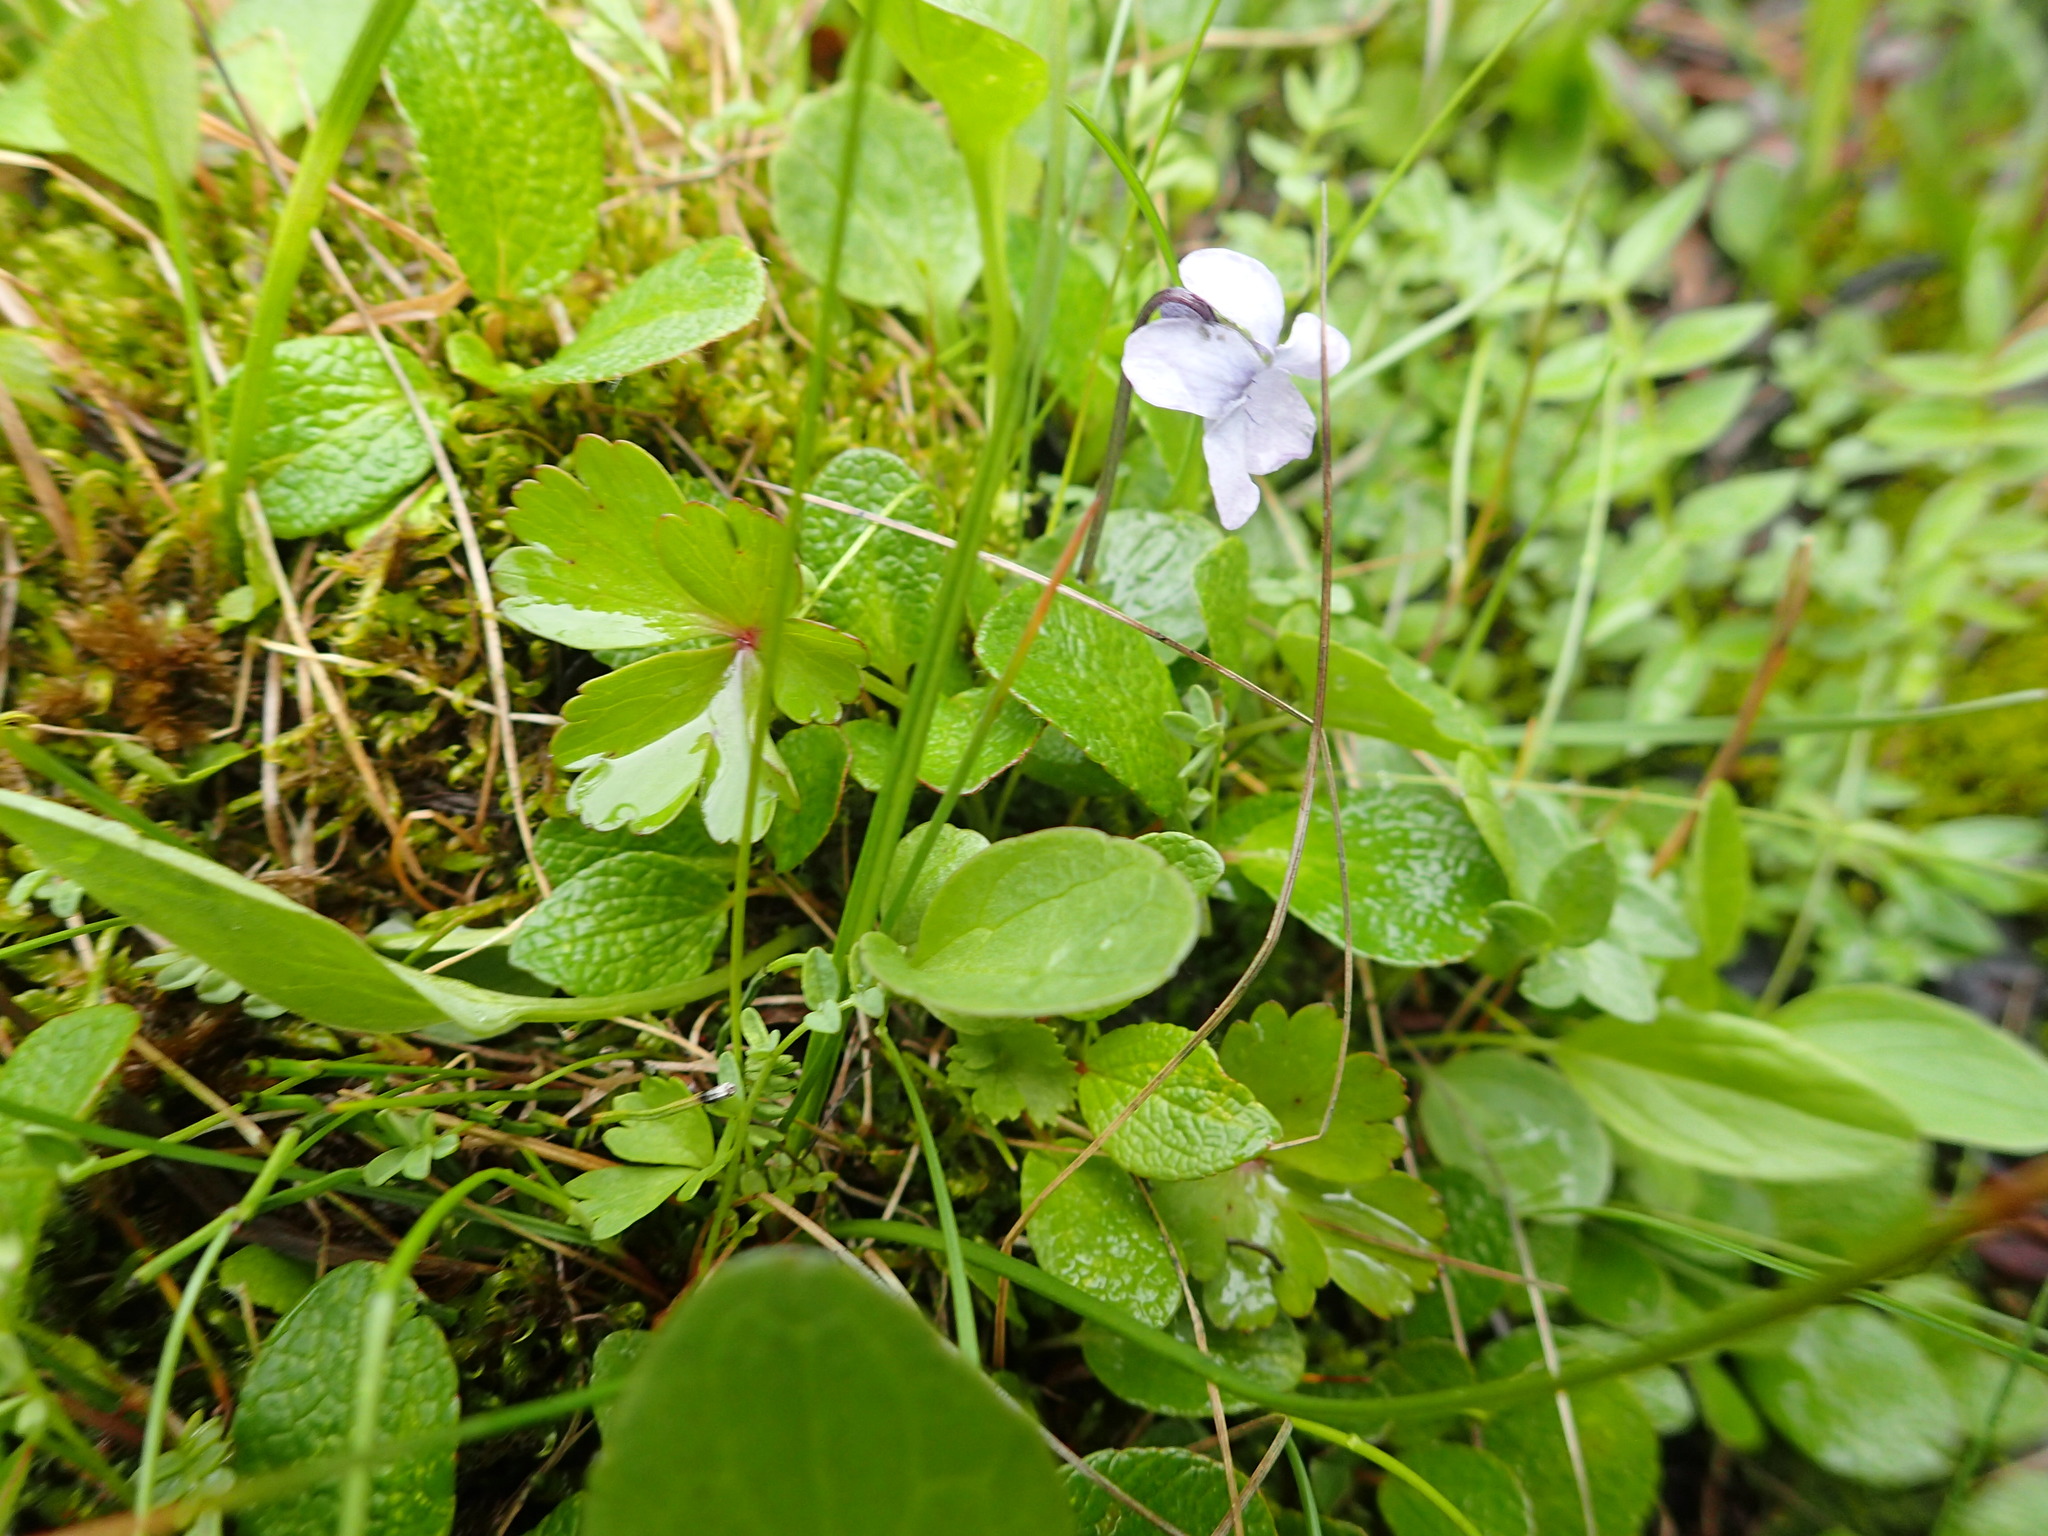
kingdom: Plantae
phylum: Tracheophyta
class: Magnoliopsida
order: Malpighiales
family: Violaceae
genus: Viola
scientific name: Viola epipsila
